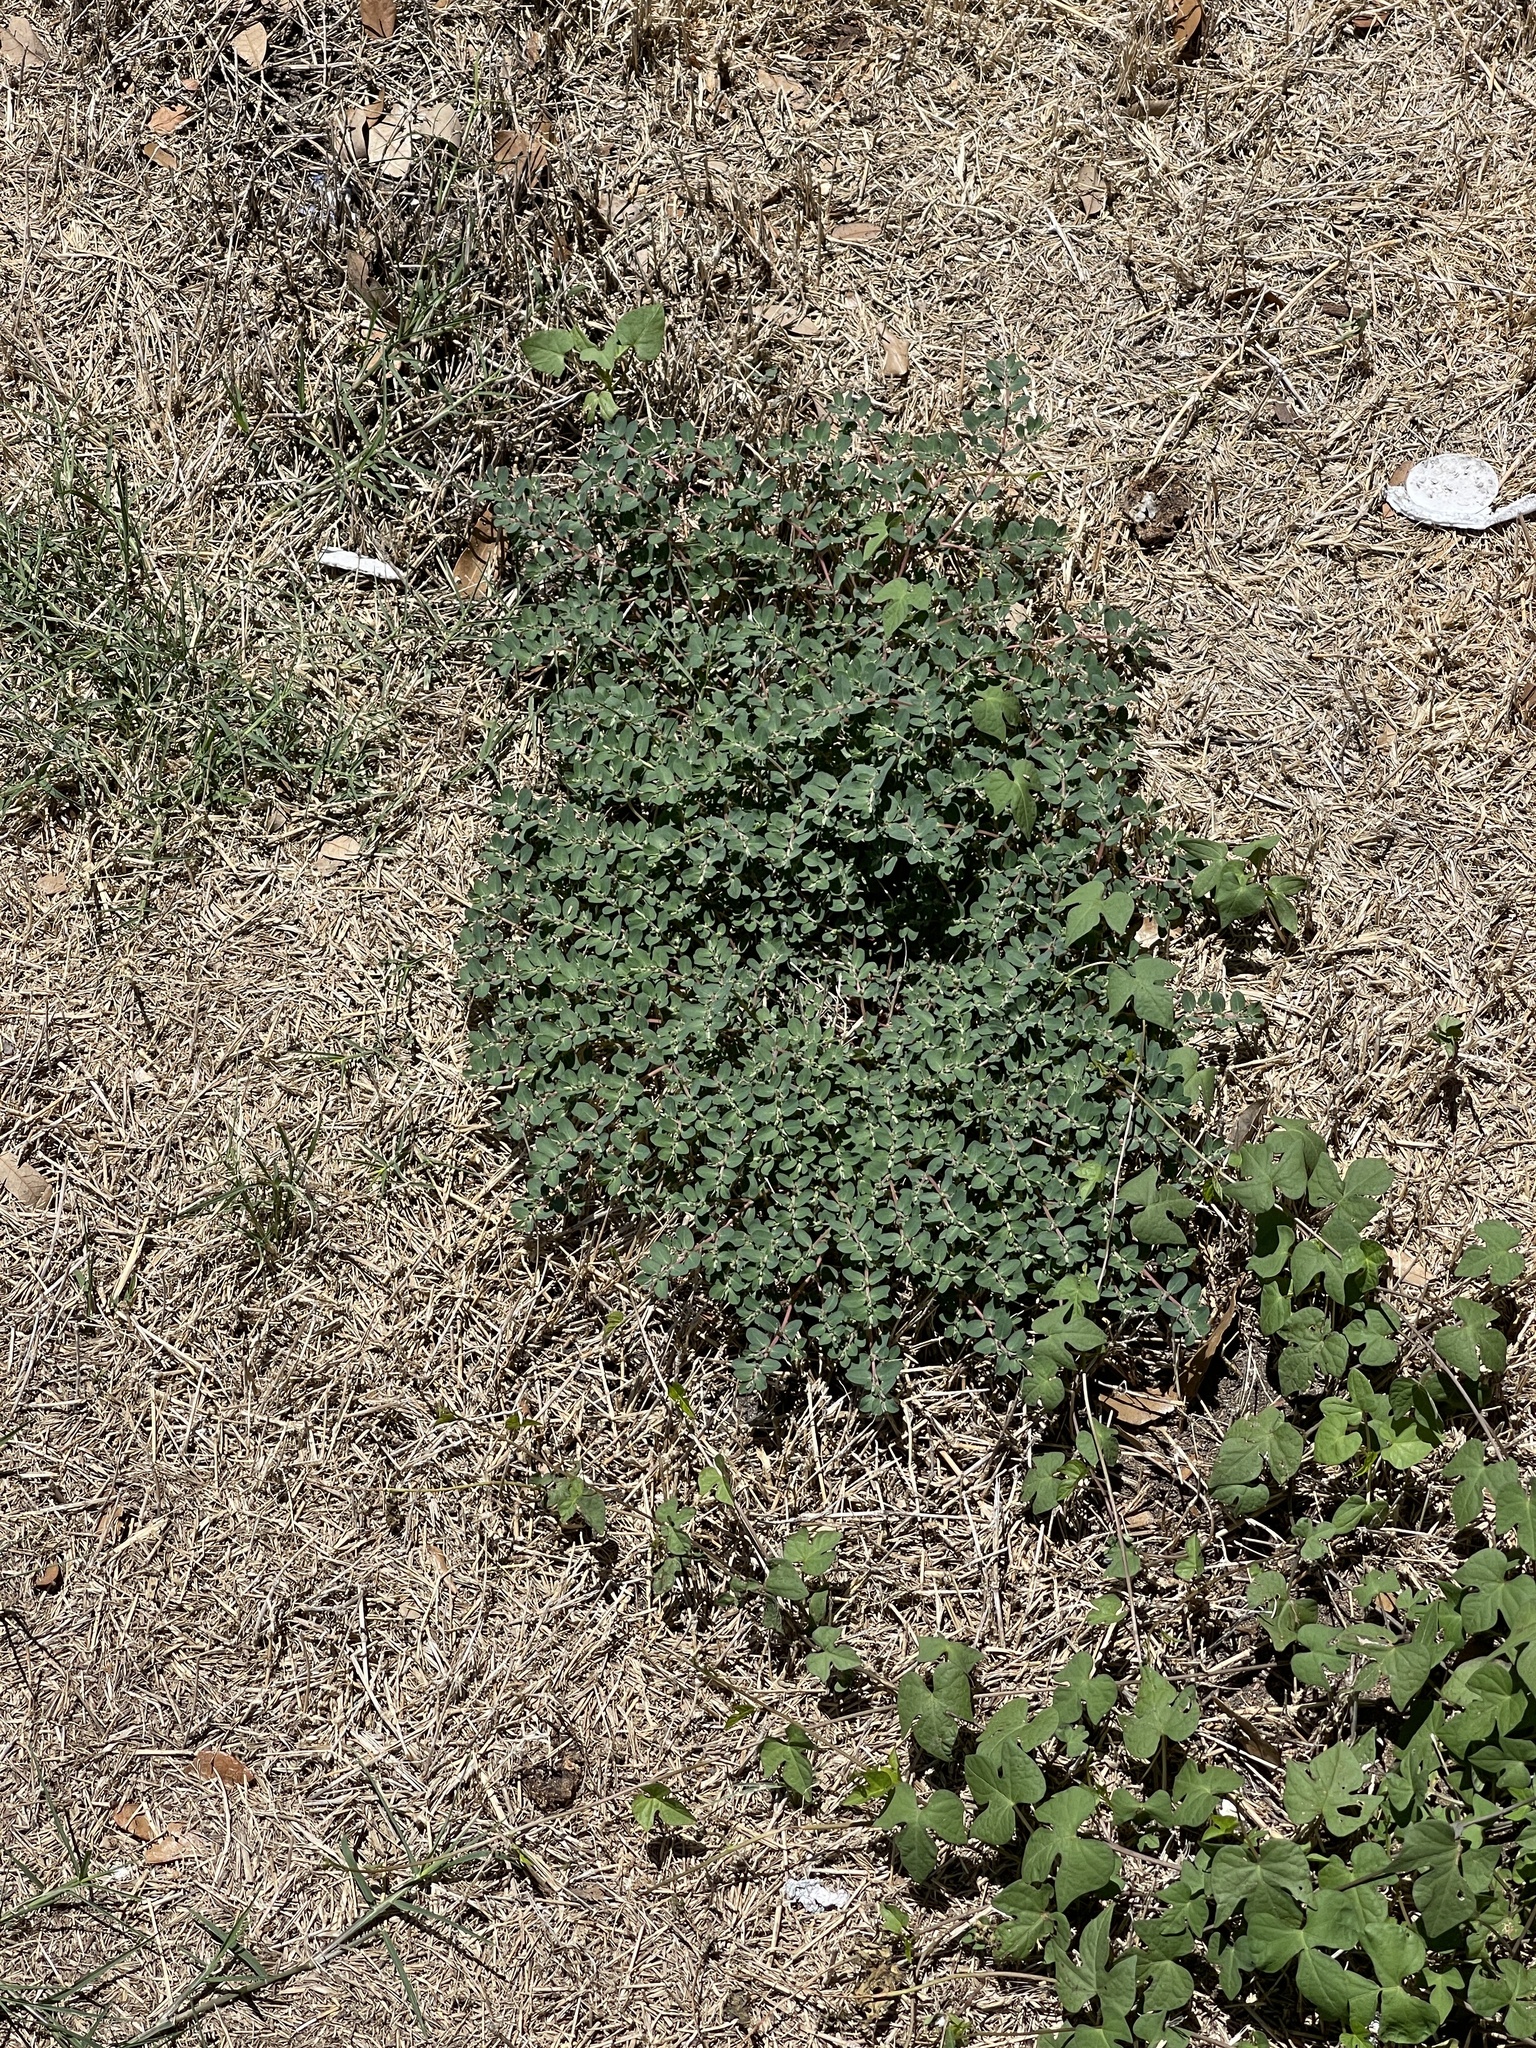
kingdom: Plantae
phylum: Tracheophyta
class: Magnoliopsida
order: Malpighiales
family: Euphorbiaceae
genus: Euphorbia
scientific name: Euphorbia prostrata
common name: Prostrate sandmat
